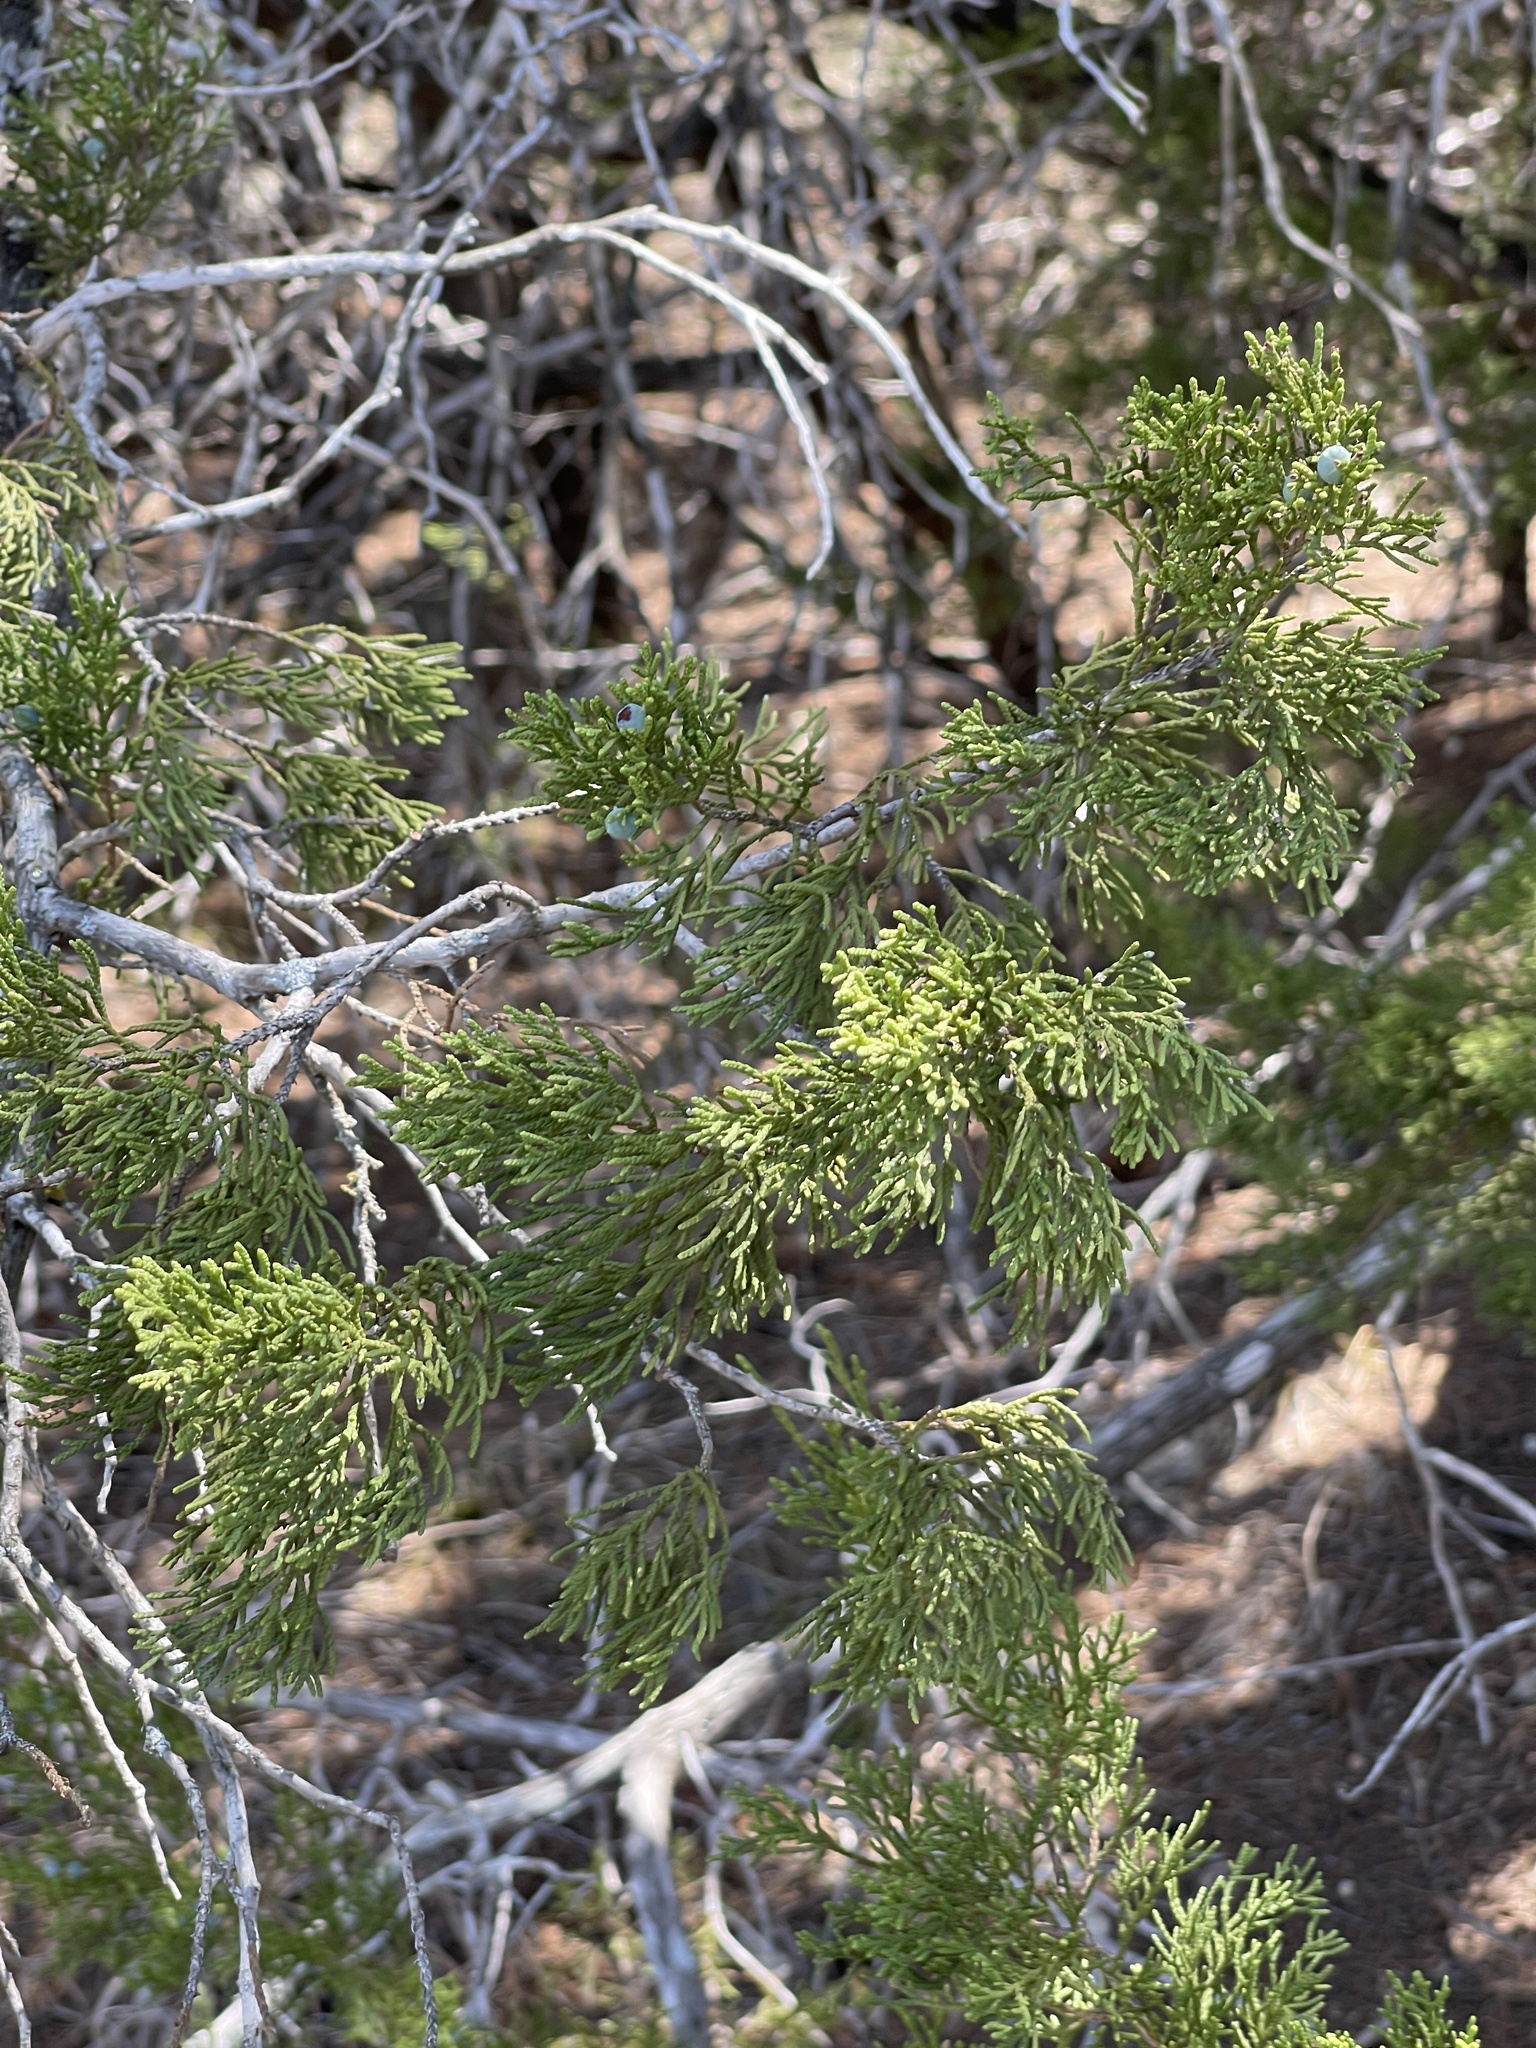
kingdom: Plantae
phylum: Tracheophyta
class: Pinopsida
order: Pinales
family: Cupressaceae
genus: Juniperus
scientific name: Juniperus ashei
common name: Mexican juniper
